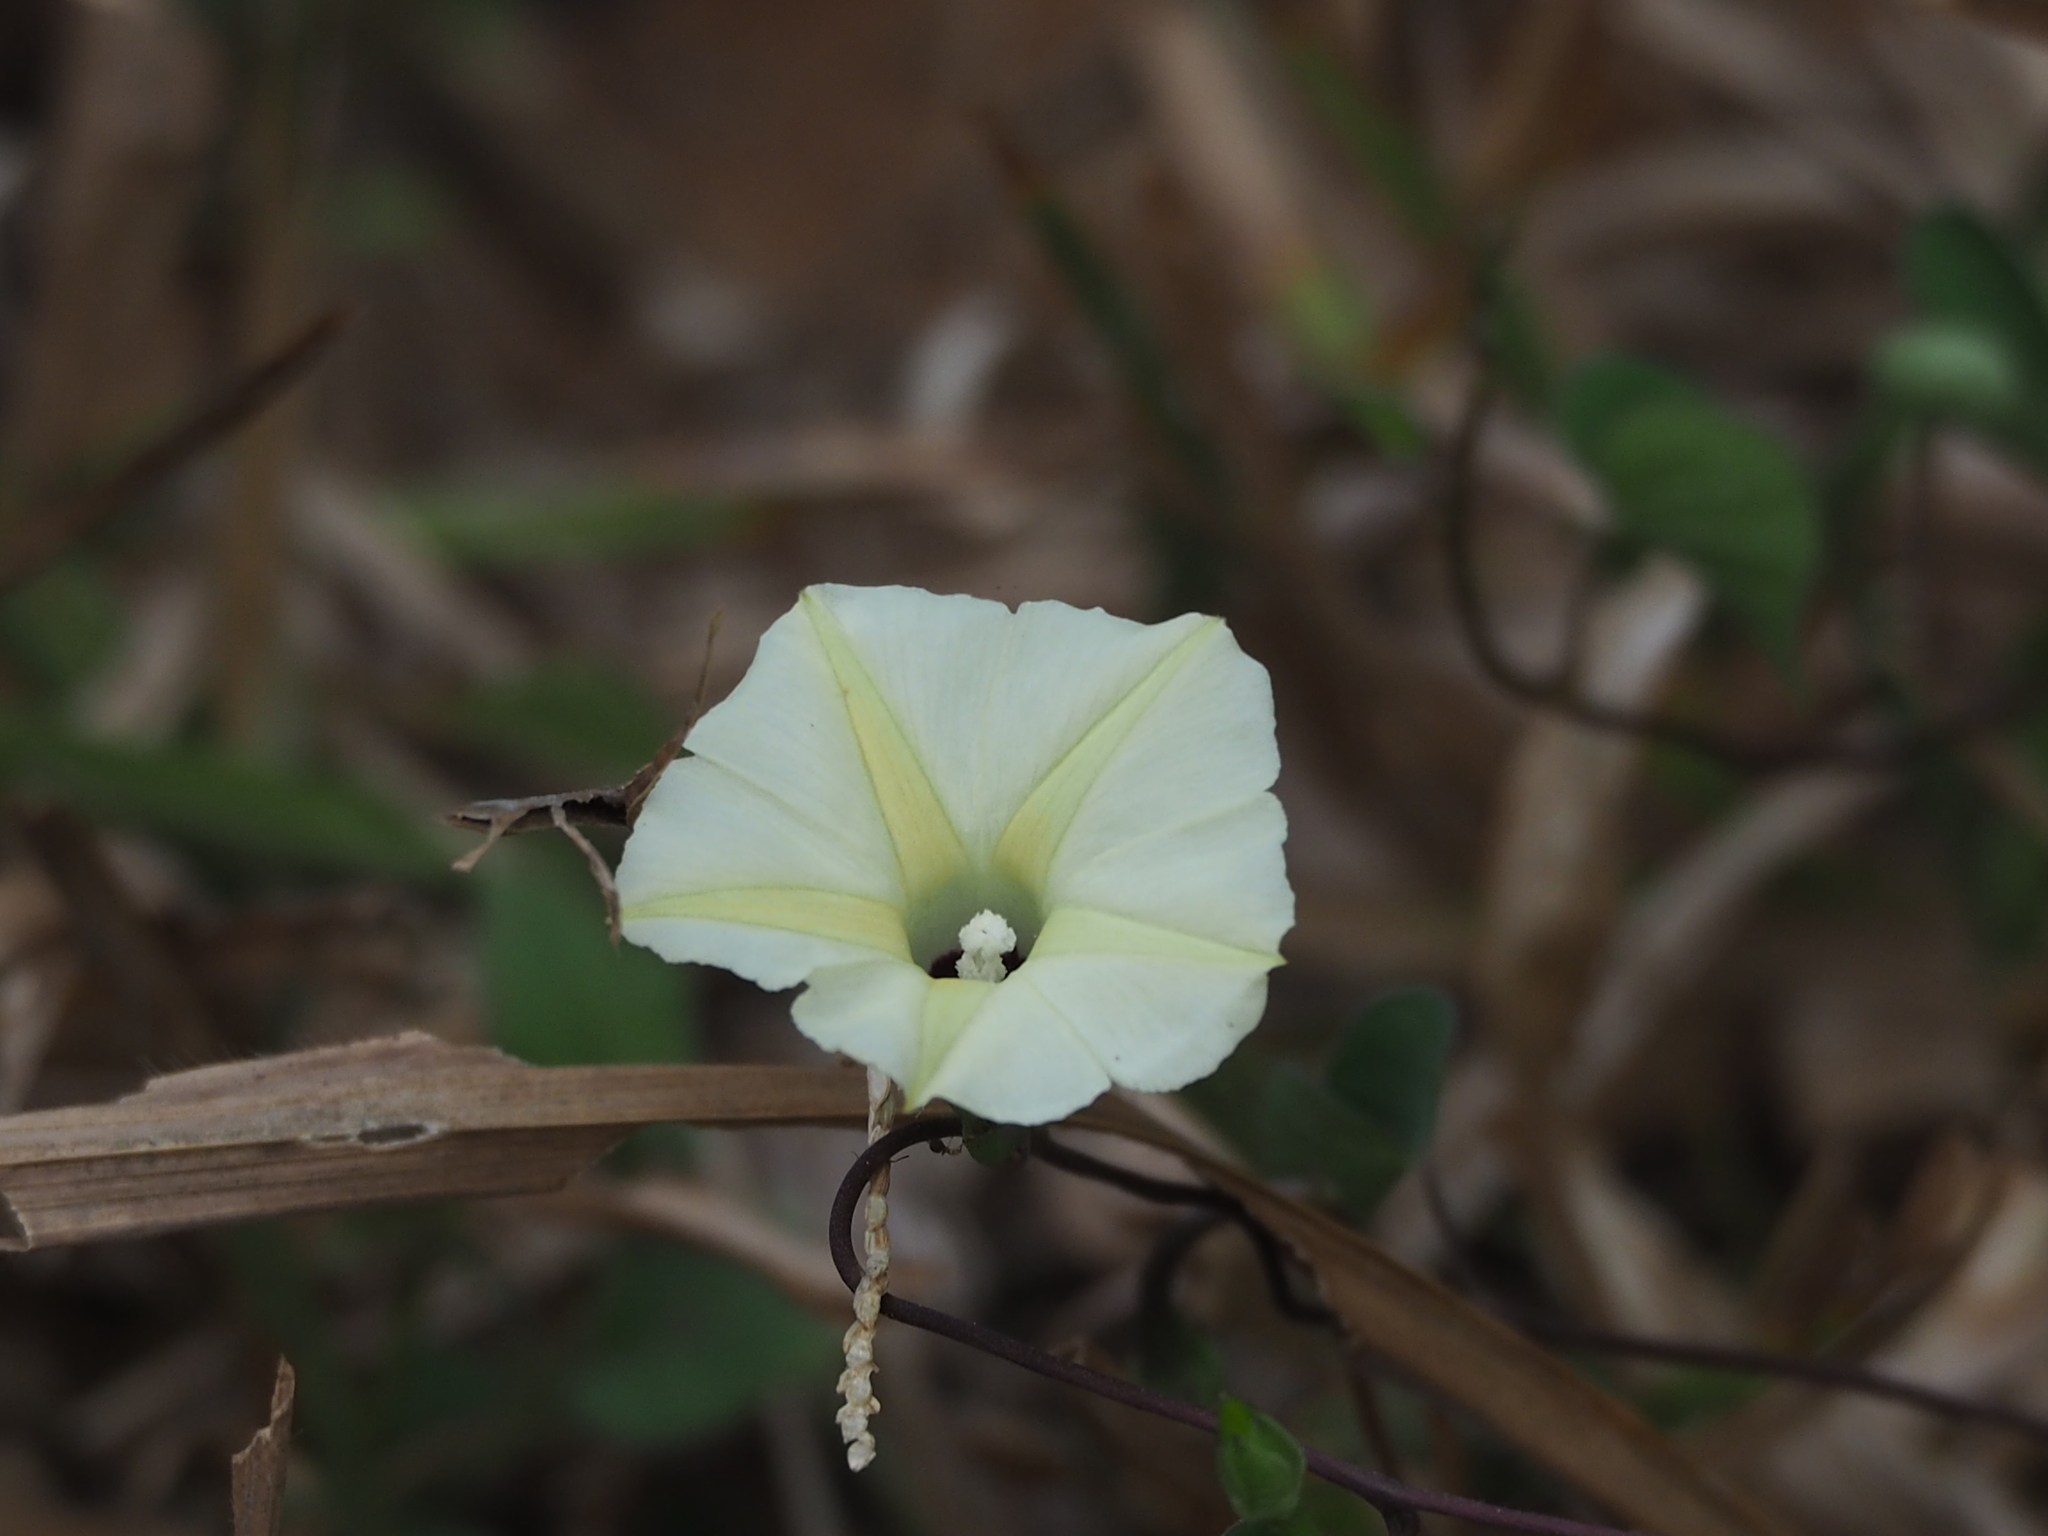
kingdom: Plantae
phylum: Tracheophyta
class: Magnoliopsida
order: Solanales
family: Convolvulaceae
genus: Ipomoea
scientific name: Ipomoea obscura
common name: Obscure morning-glory
